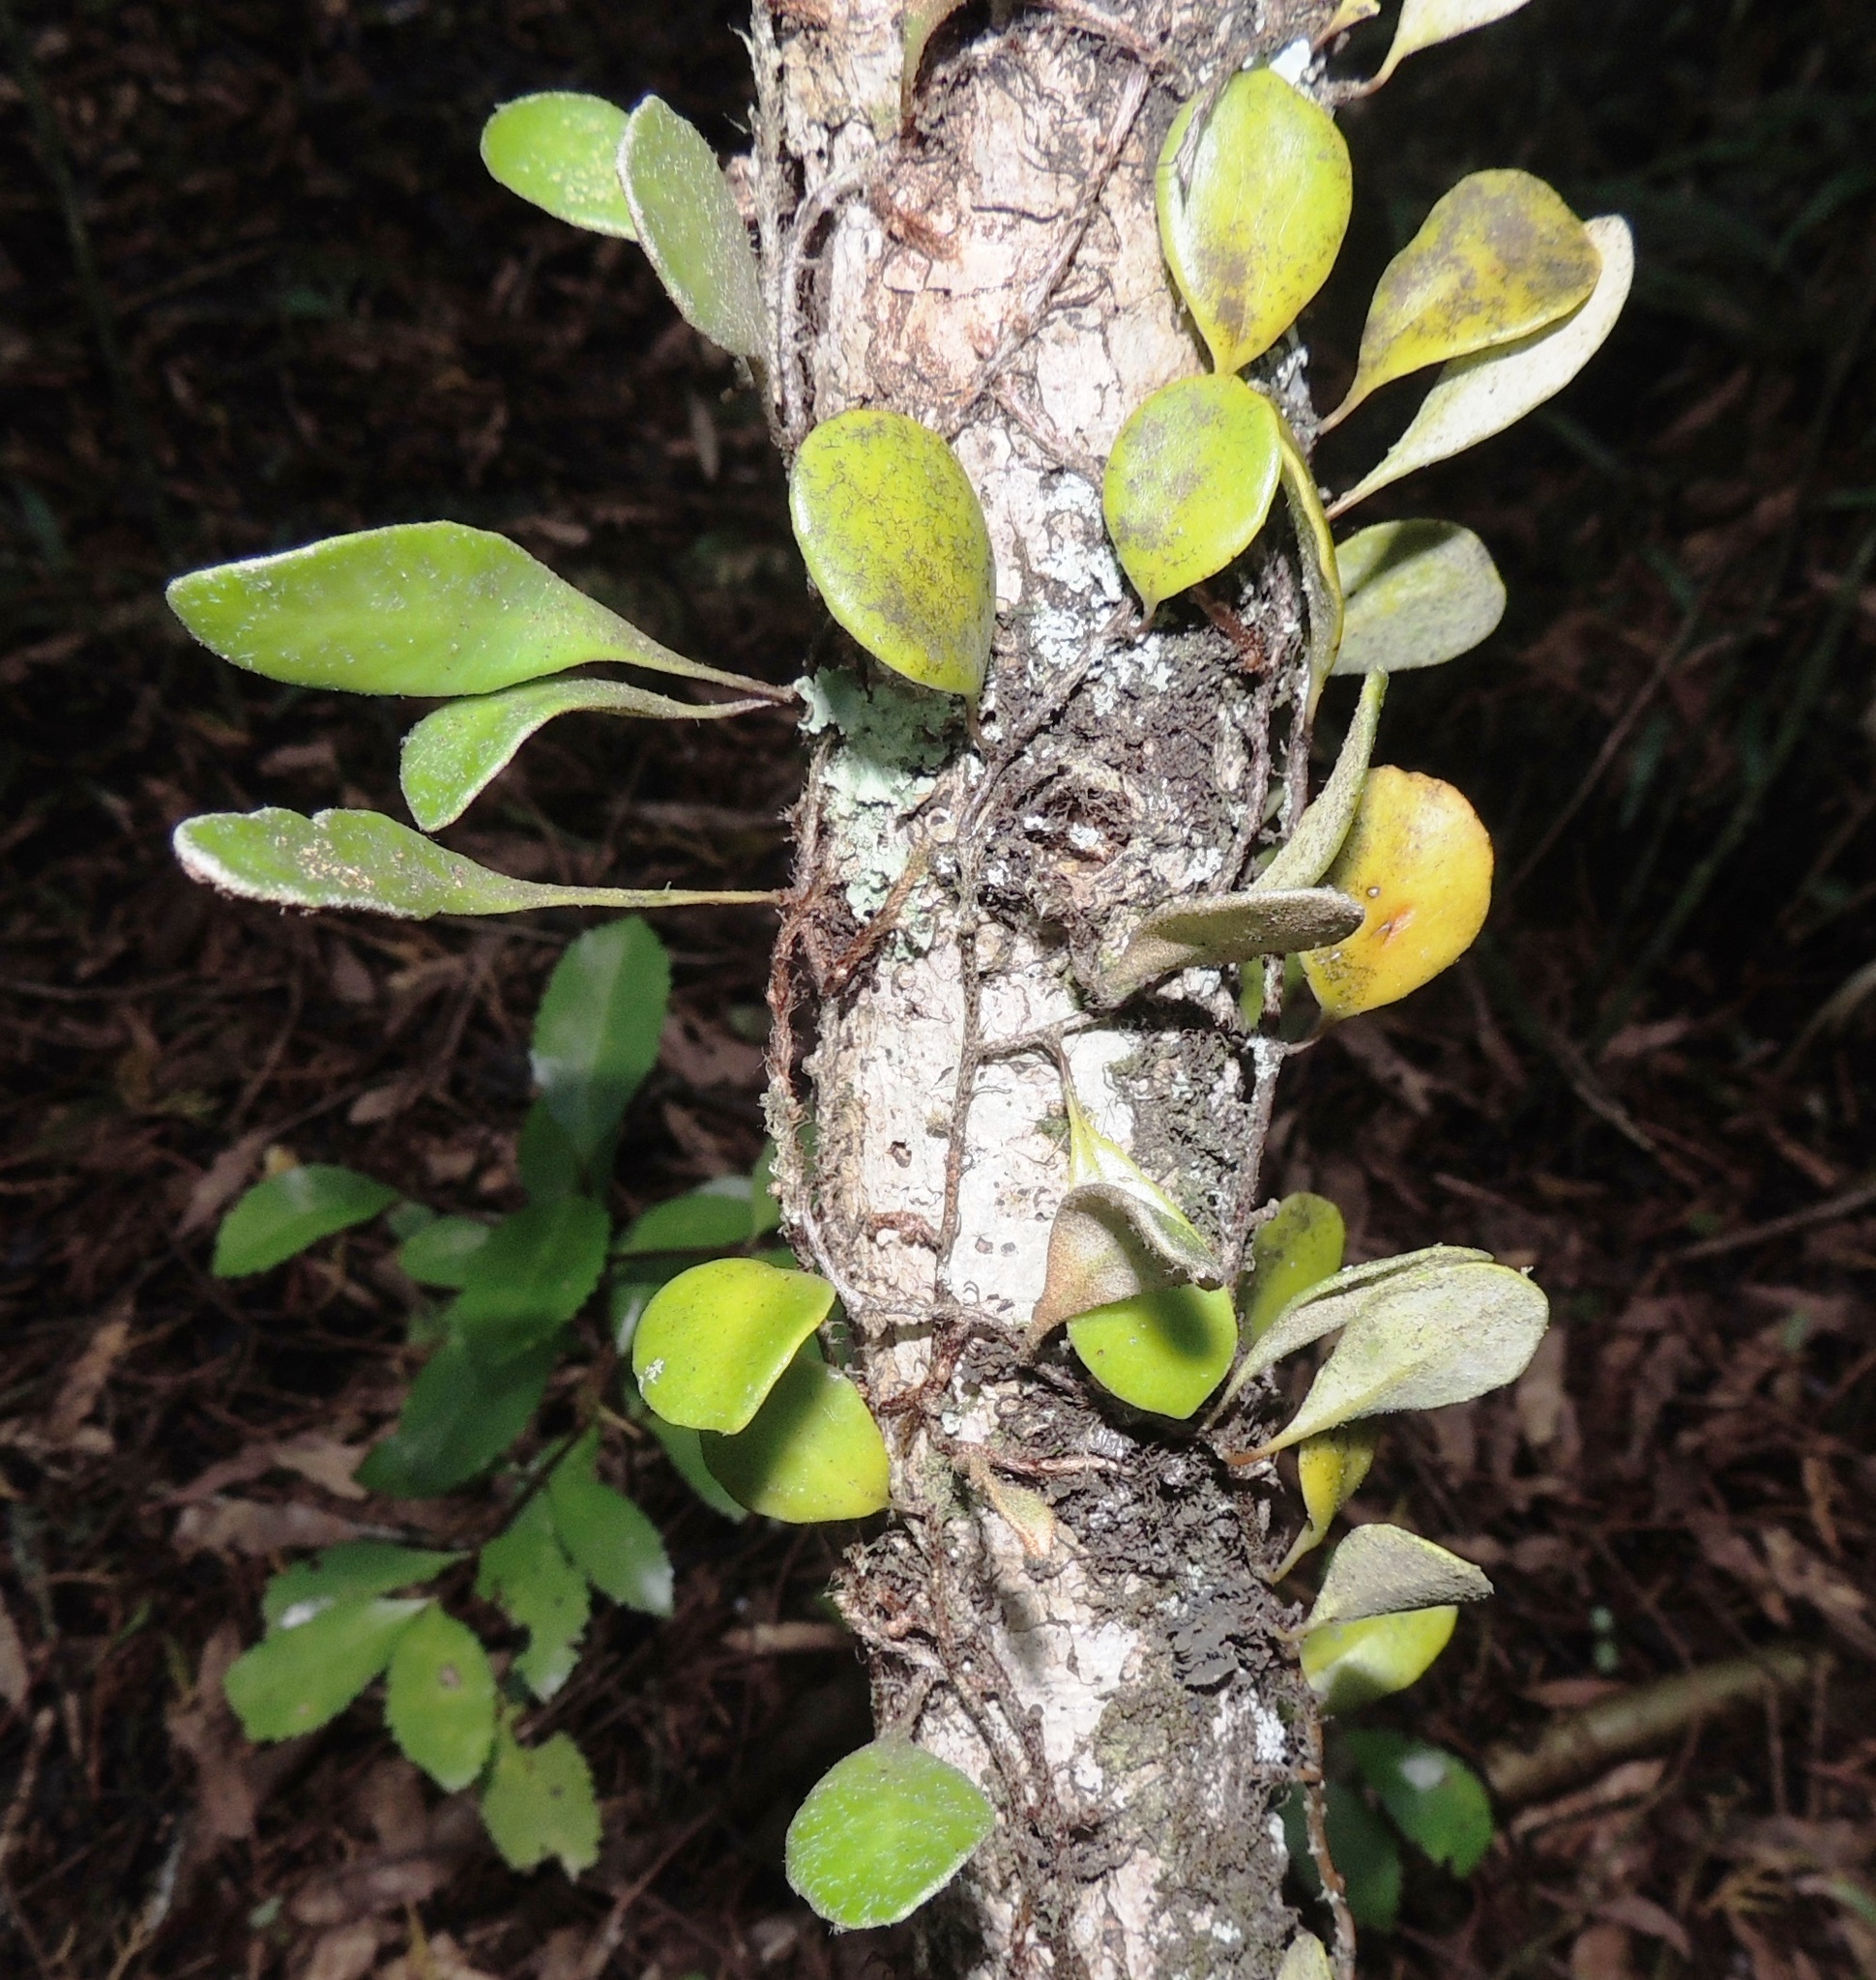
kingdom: Plantae
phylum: Tracheophyta
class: Polypodiopsida
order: Polypodiales
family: Polypodiaceae
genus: Pyrrosia
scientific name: Pyrrosia eleagnifolia
